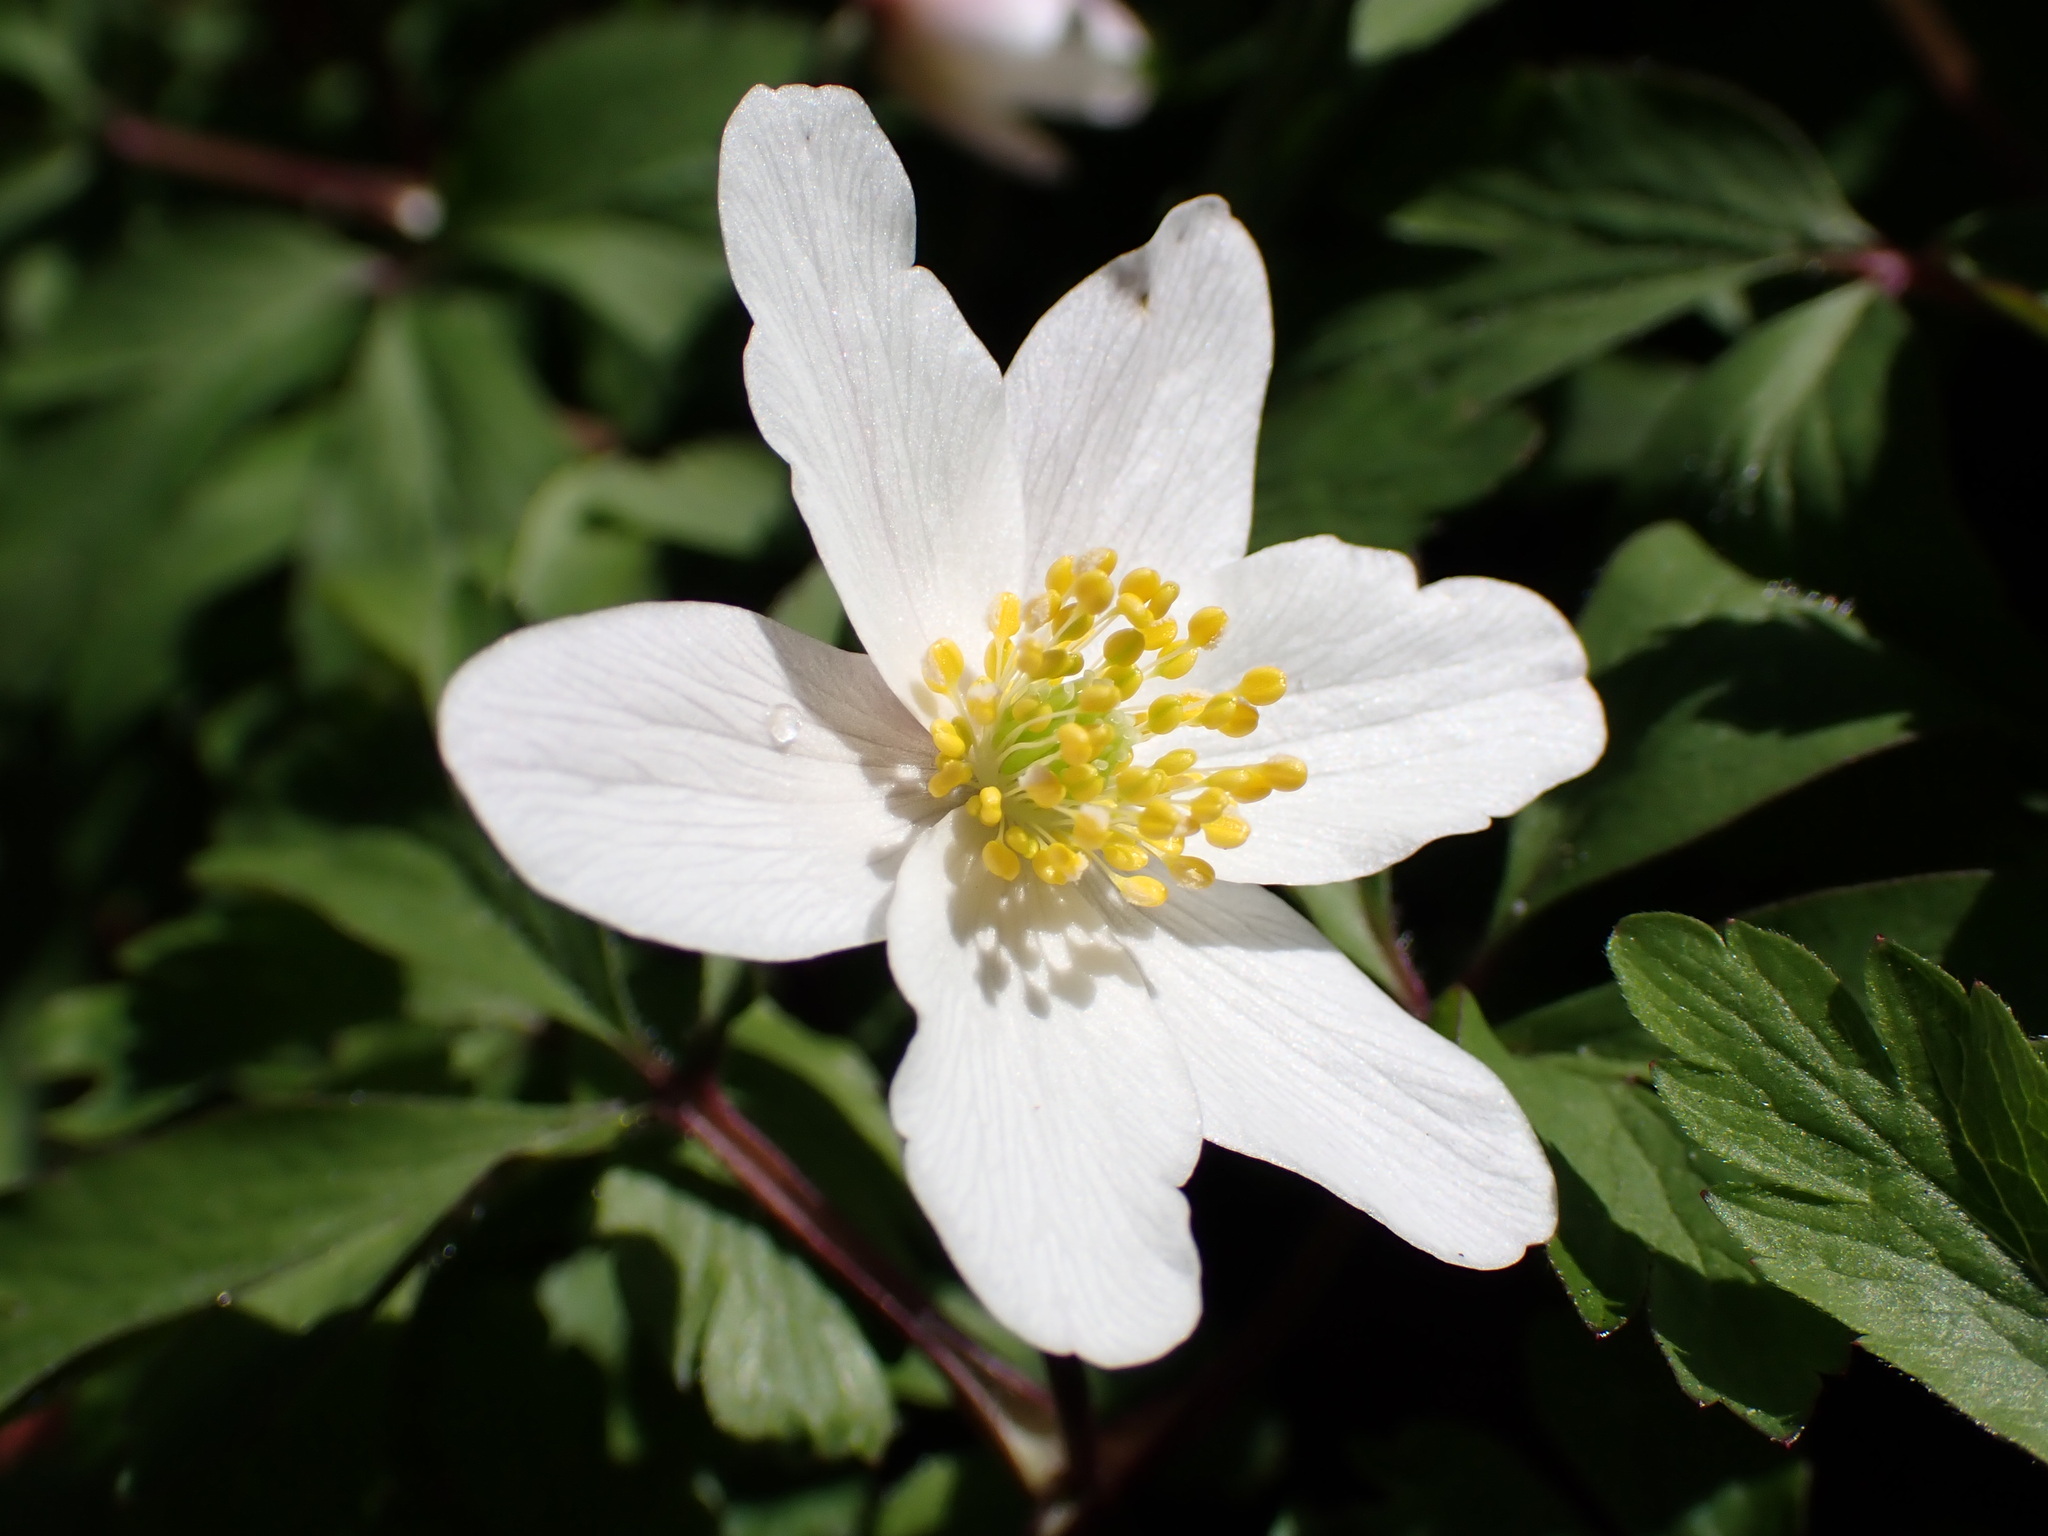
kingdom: Plantae
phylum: Tracheophyta
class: Magnoliopsida
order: Ranunculales
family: Ranunculaceae
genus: Anemone
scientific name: Anemone nemorosa
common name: Wood anemone
